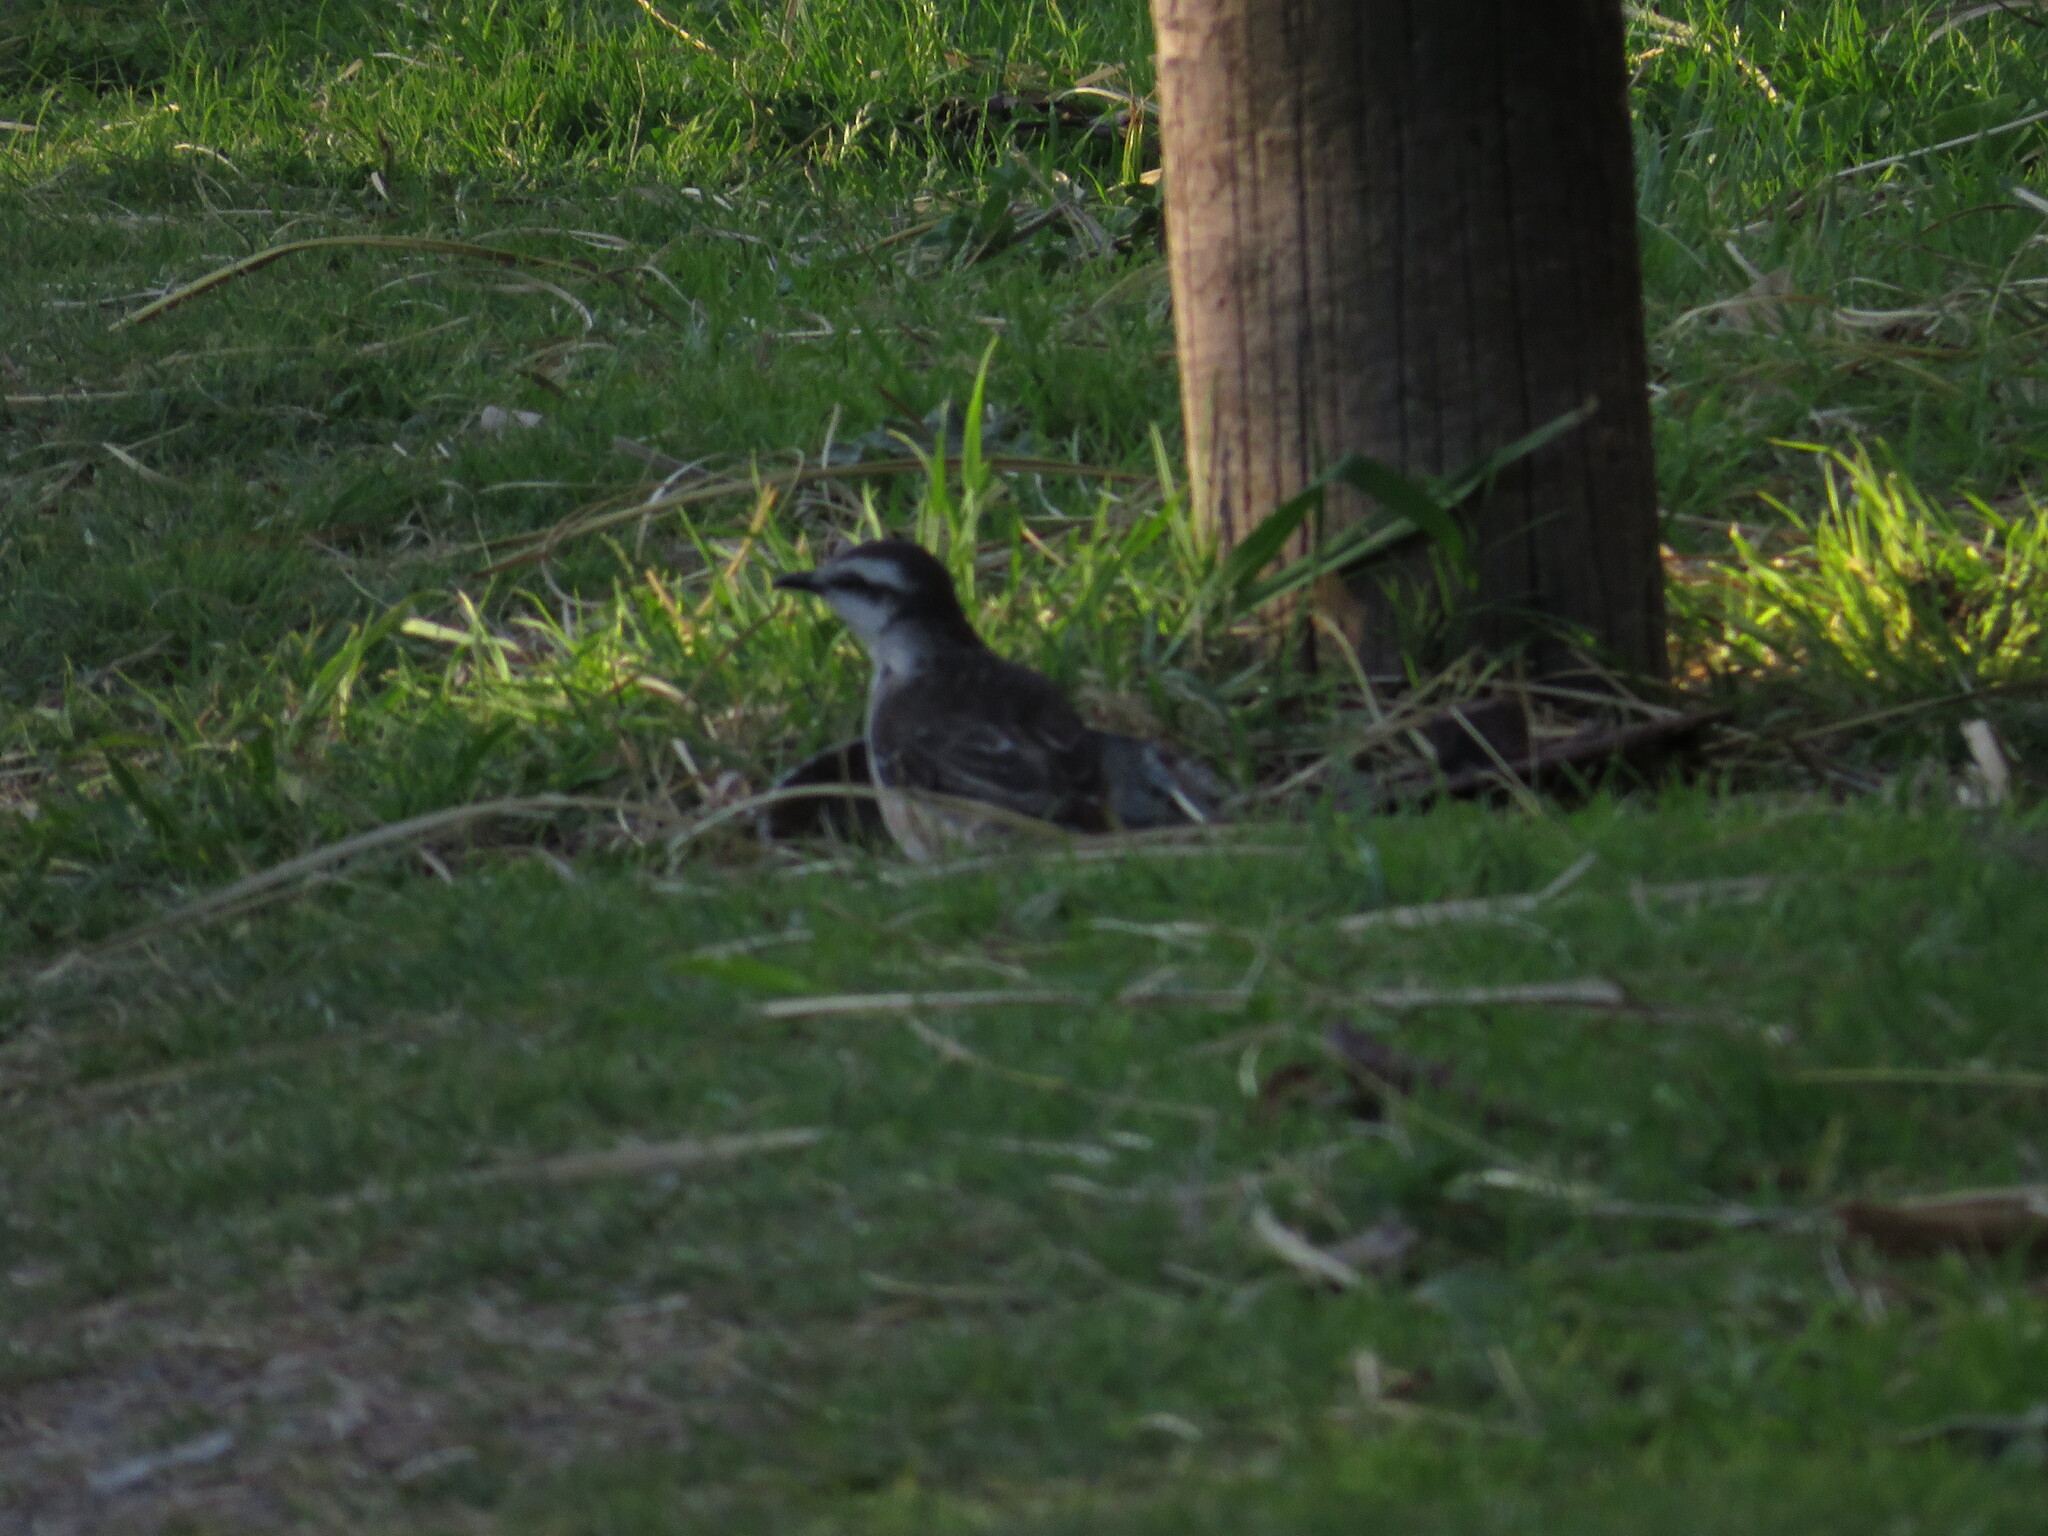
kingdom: Animalia
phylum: Chordata
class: Aves
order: Passeriformes
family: Mimidae
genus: Mimus
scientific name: Mimus saturninus
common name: Chalk-browed mockingbird
